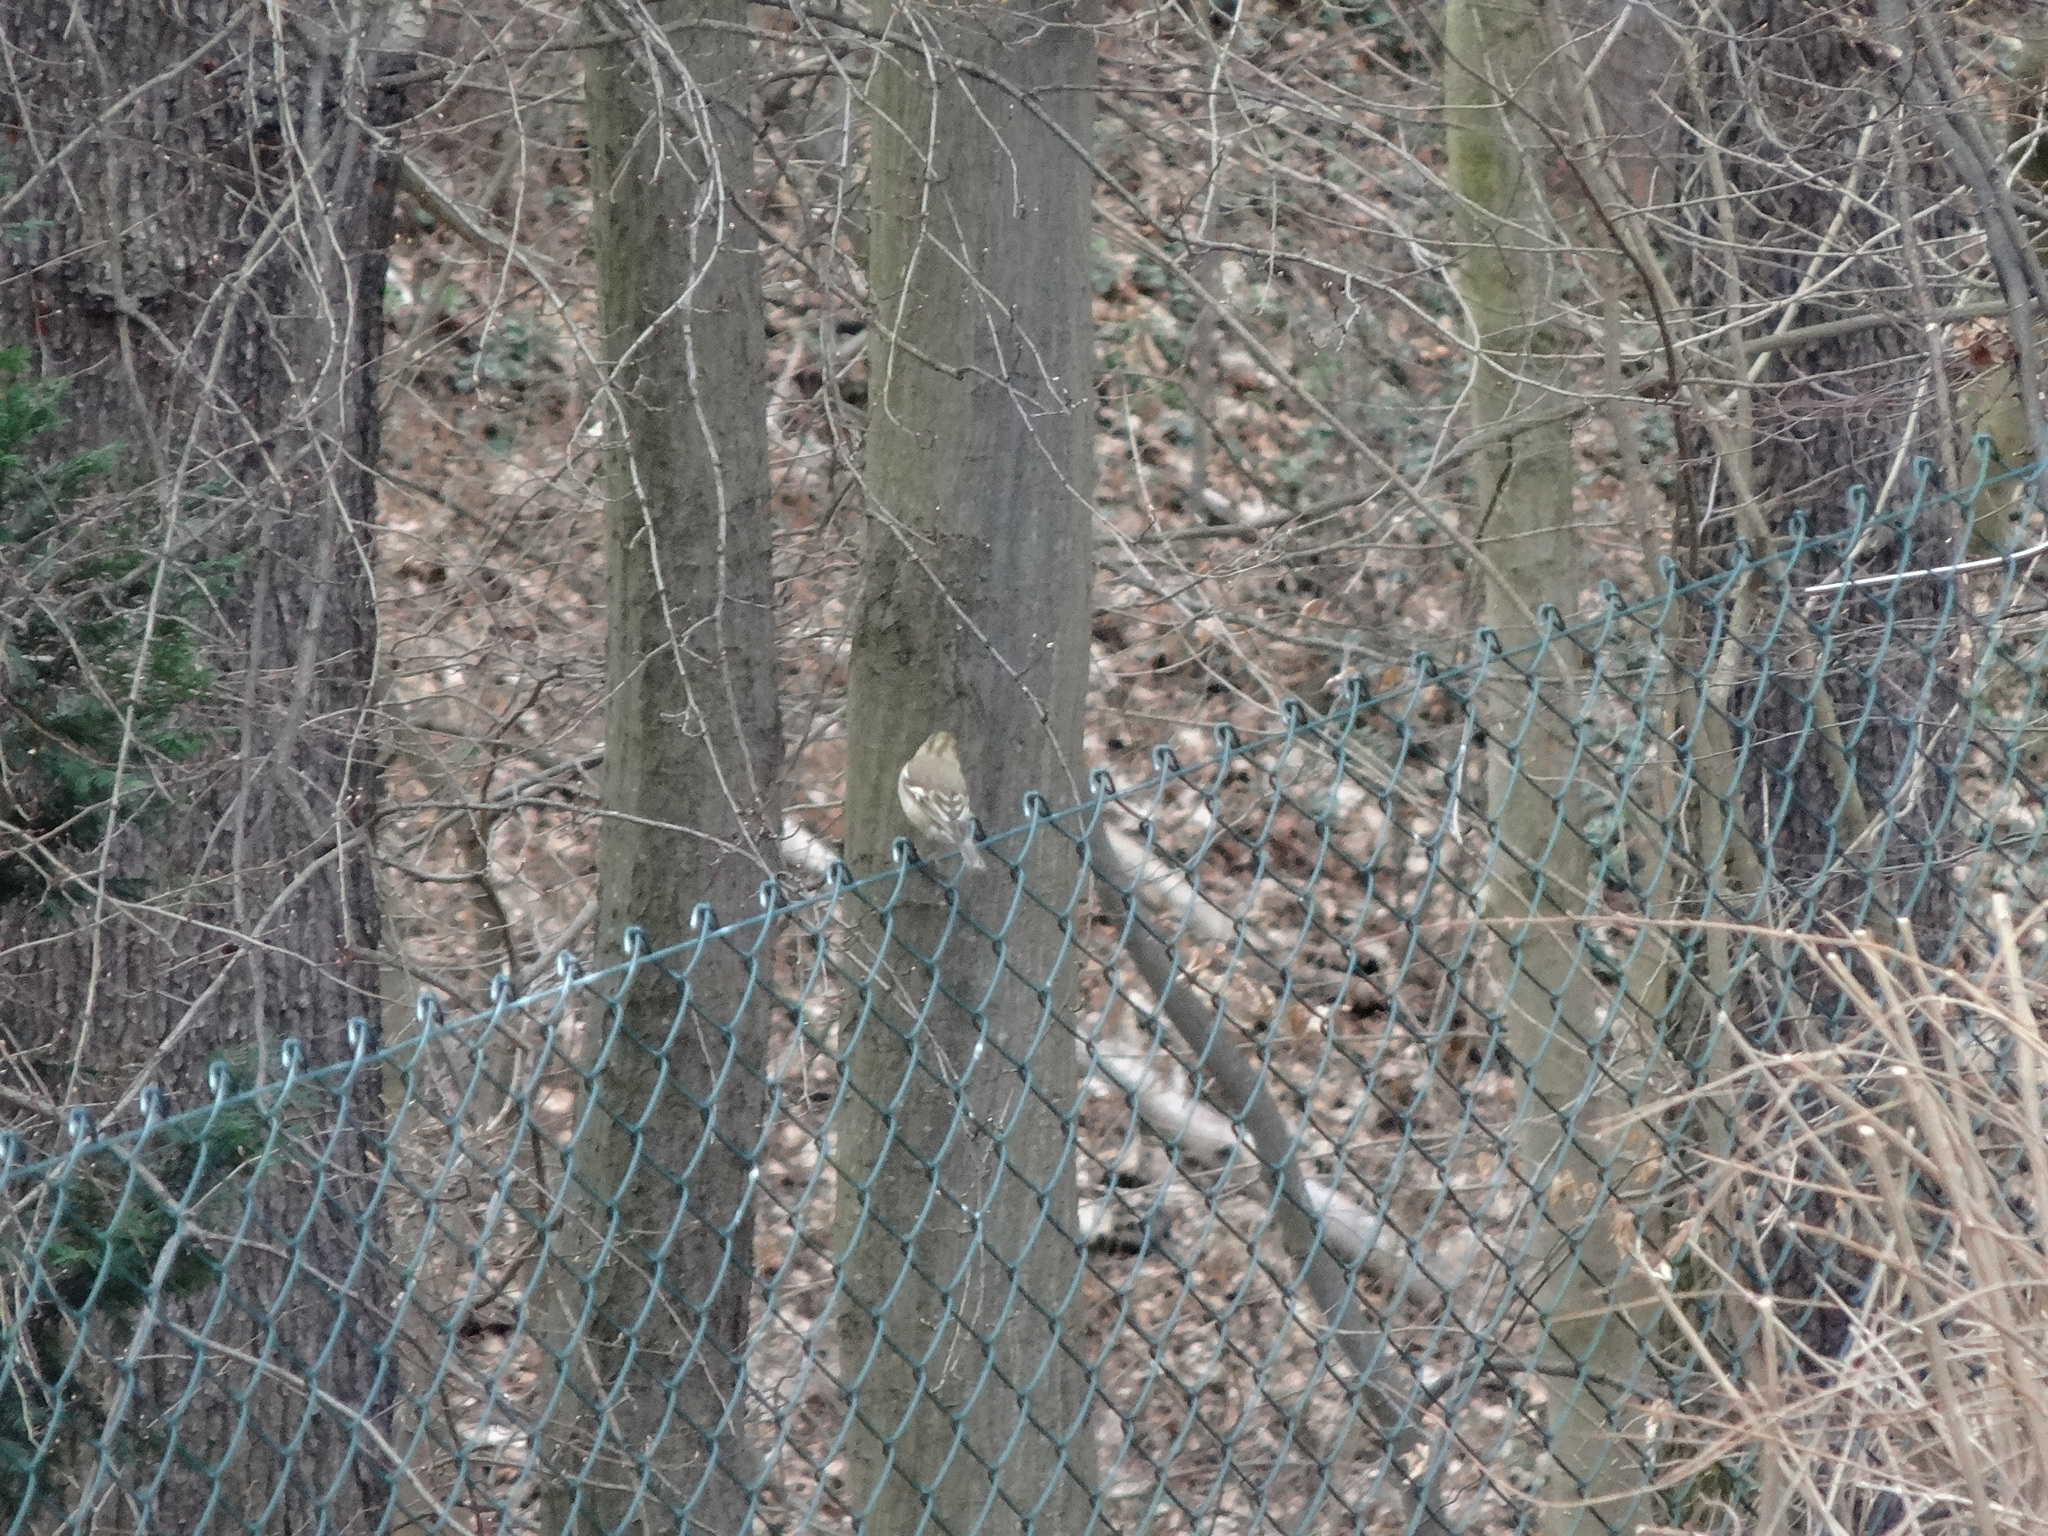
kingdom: Animalia
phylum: Chordata
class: Aves
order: Passeriformes
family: Fringillidae
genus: Fringilla
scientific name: Fringilla coelebs
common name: Common chaffinch
